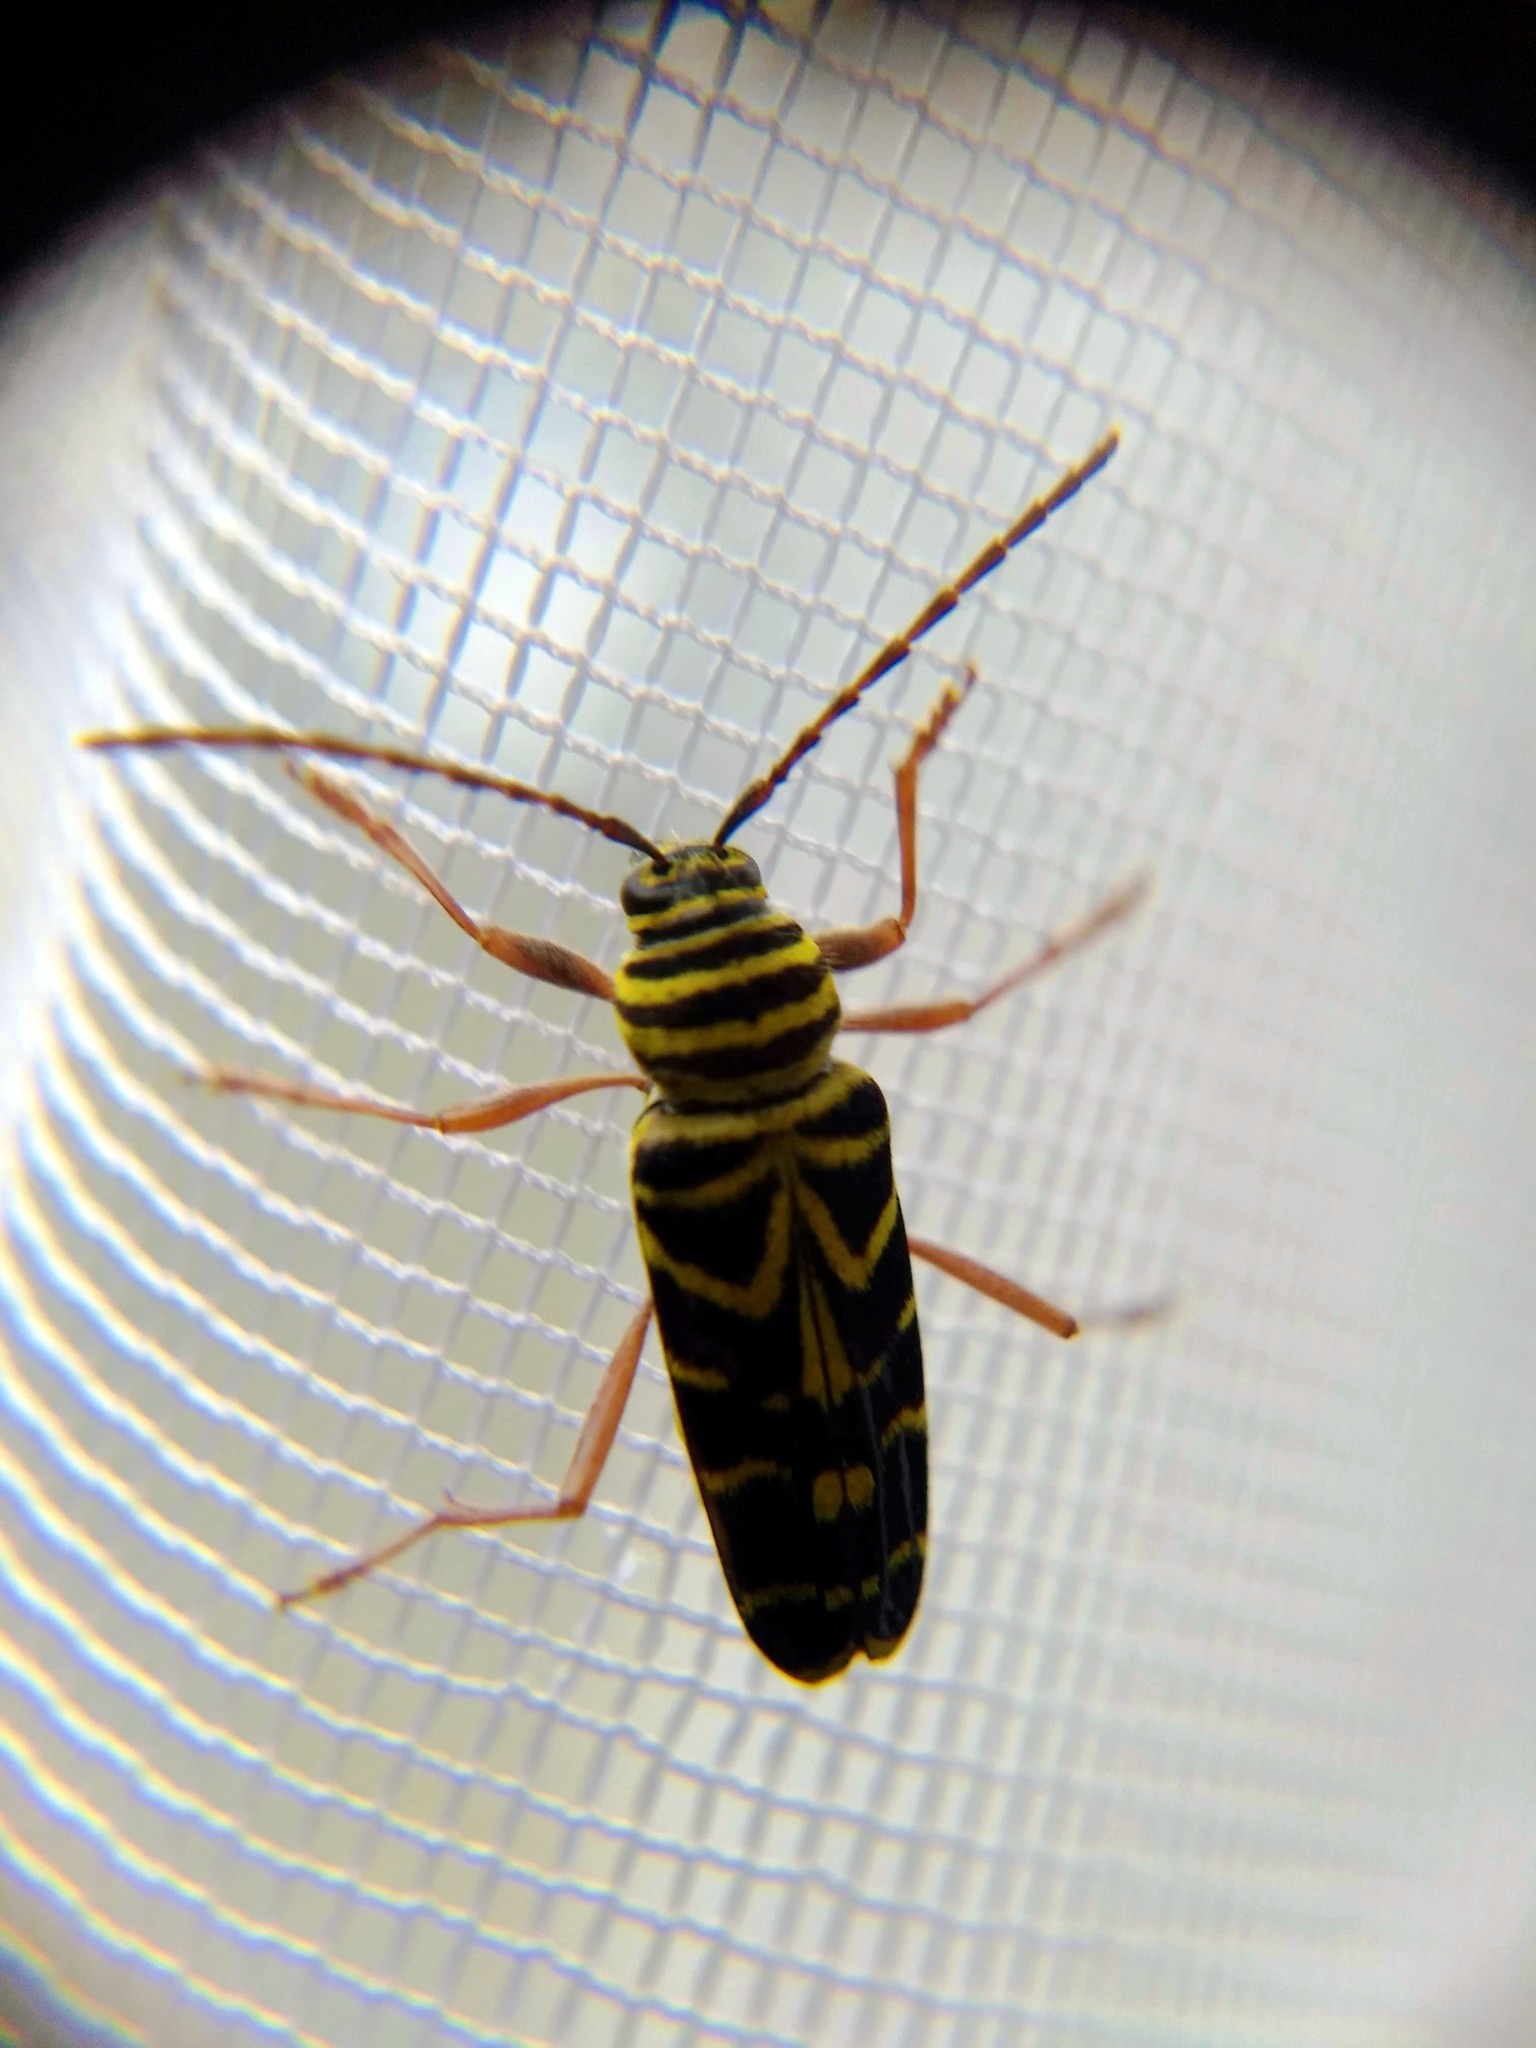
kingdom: Animalia
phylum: Arthropoda
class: Insecta
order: Coleoptera
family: Cerambycidae
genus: Megacyllene
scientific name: Megacyllene robiniae
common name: Locust borer
